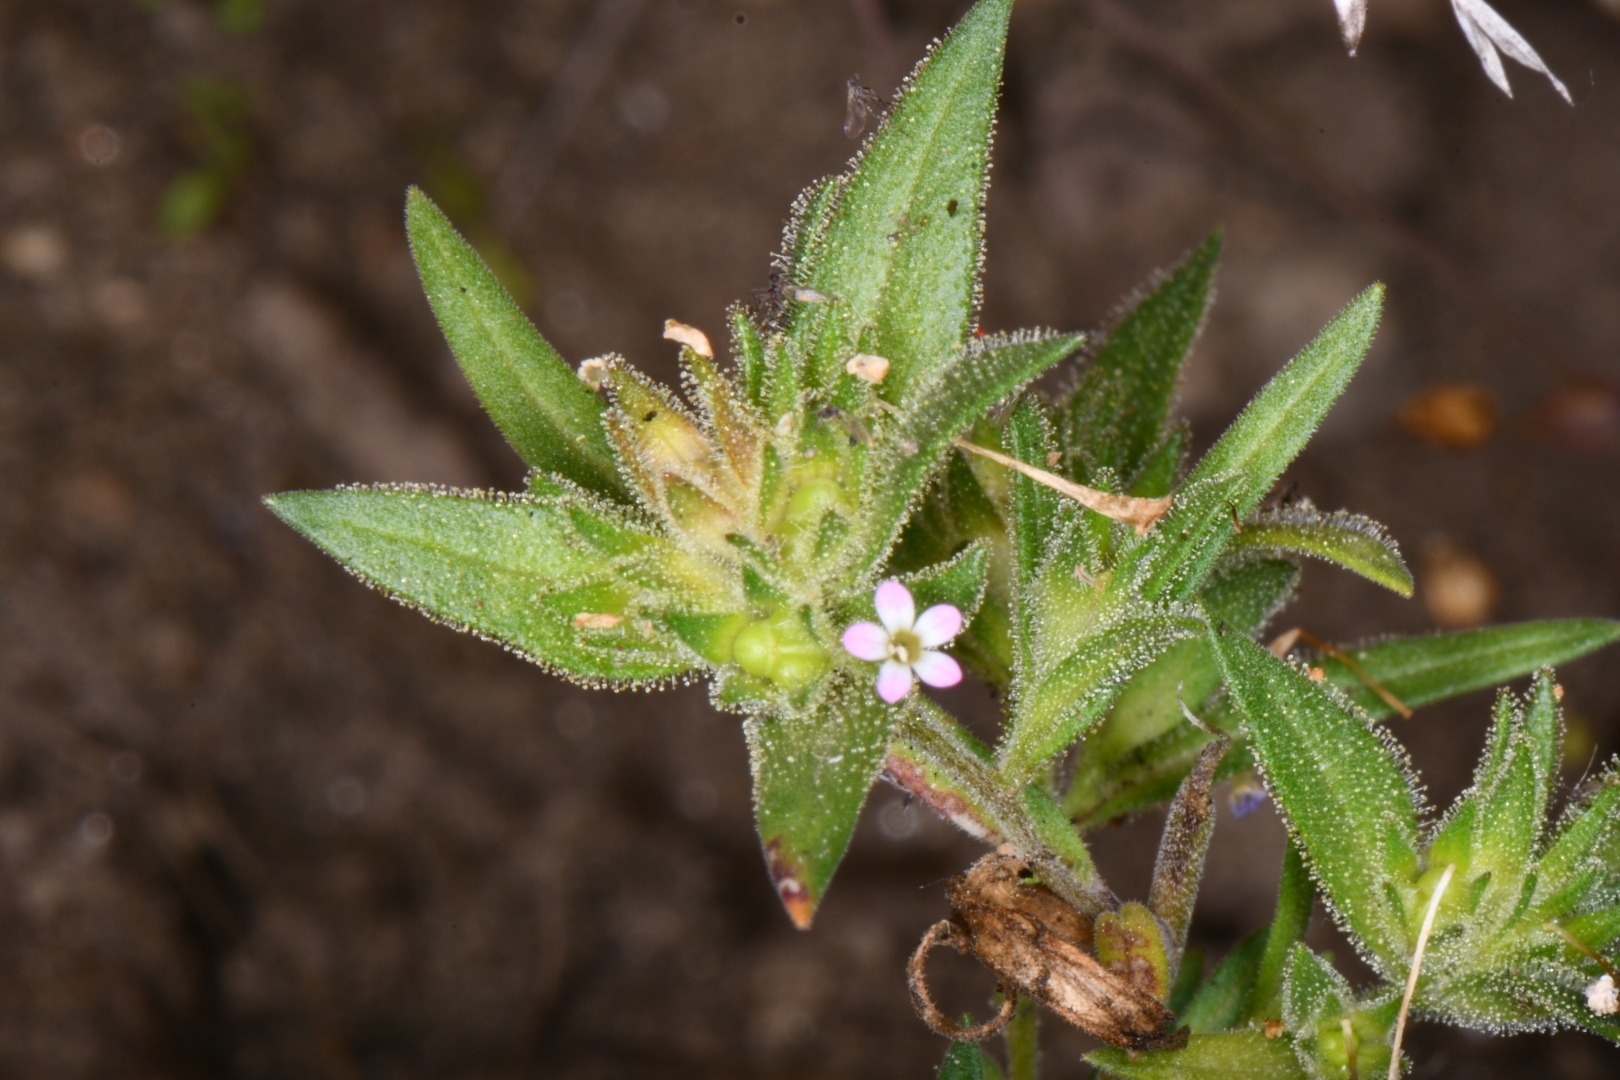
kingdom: Plantae
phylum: Tracheophyta
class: Magnoliopsida
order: Ericales
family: Polemoniaceae
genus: Collomia
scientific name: Collomia linearis
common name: Tiny trumpet
